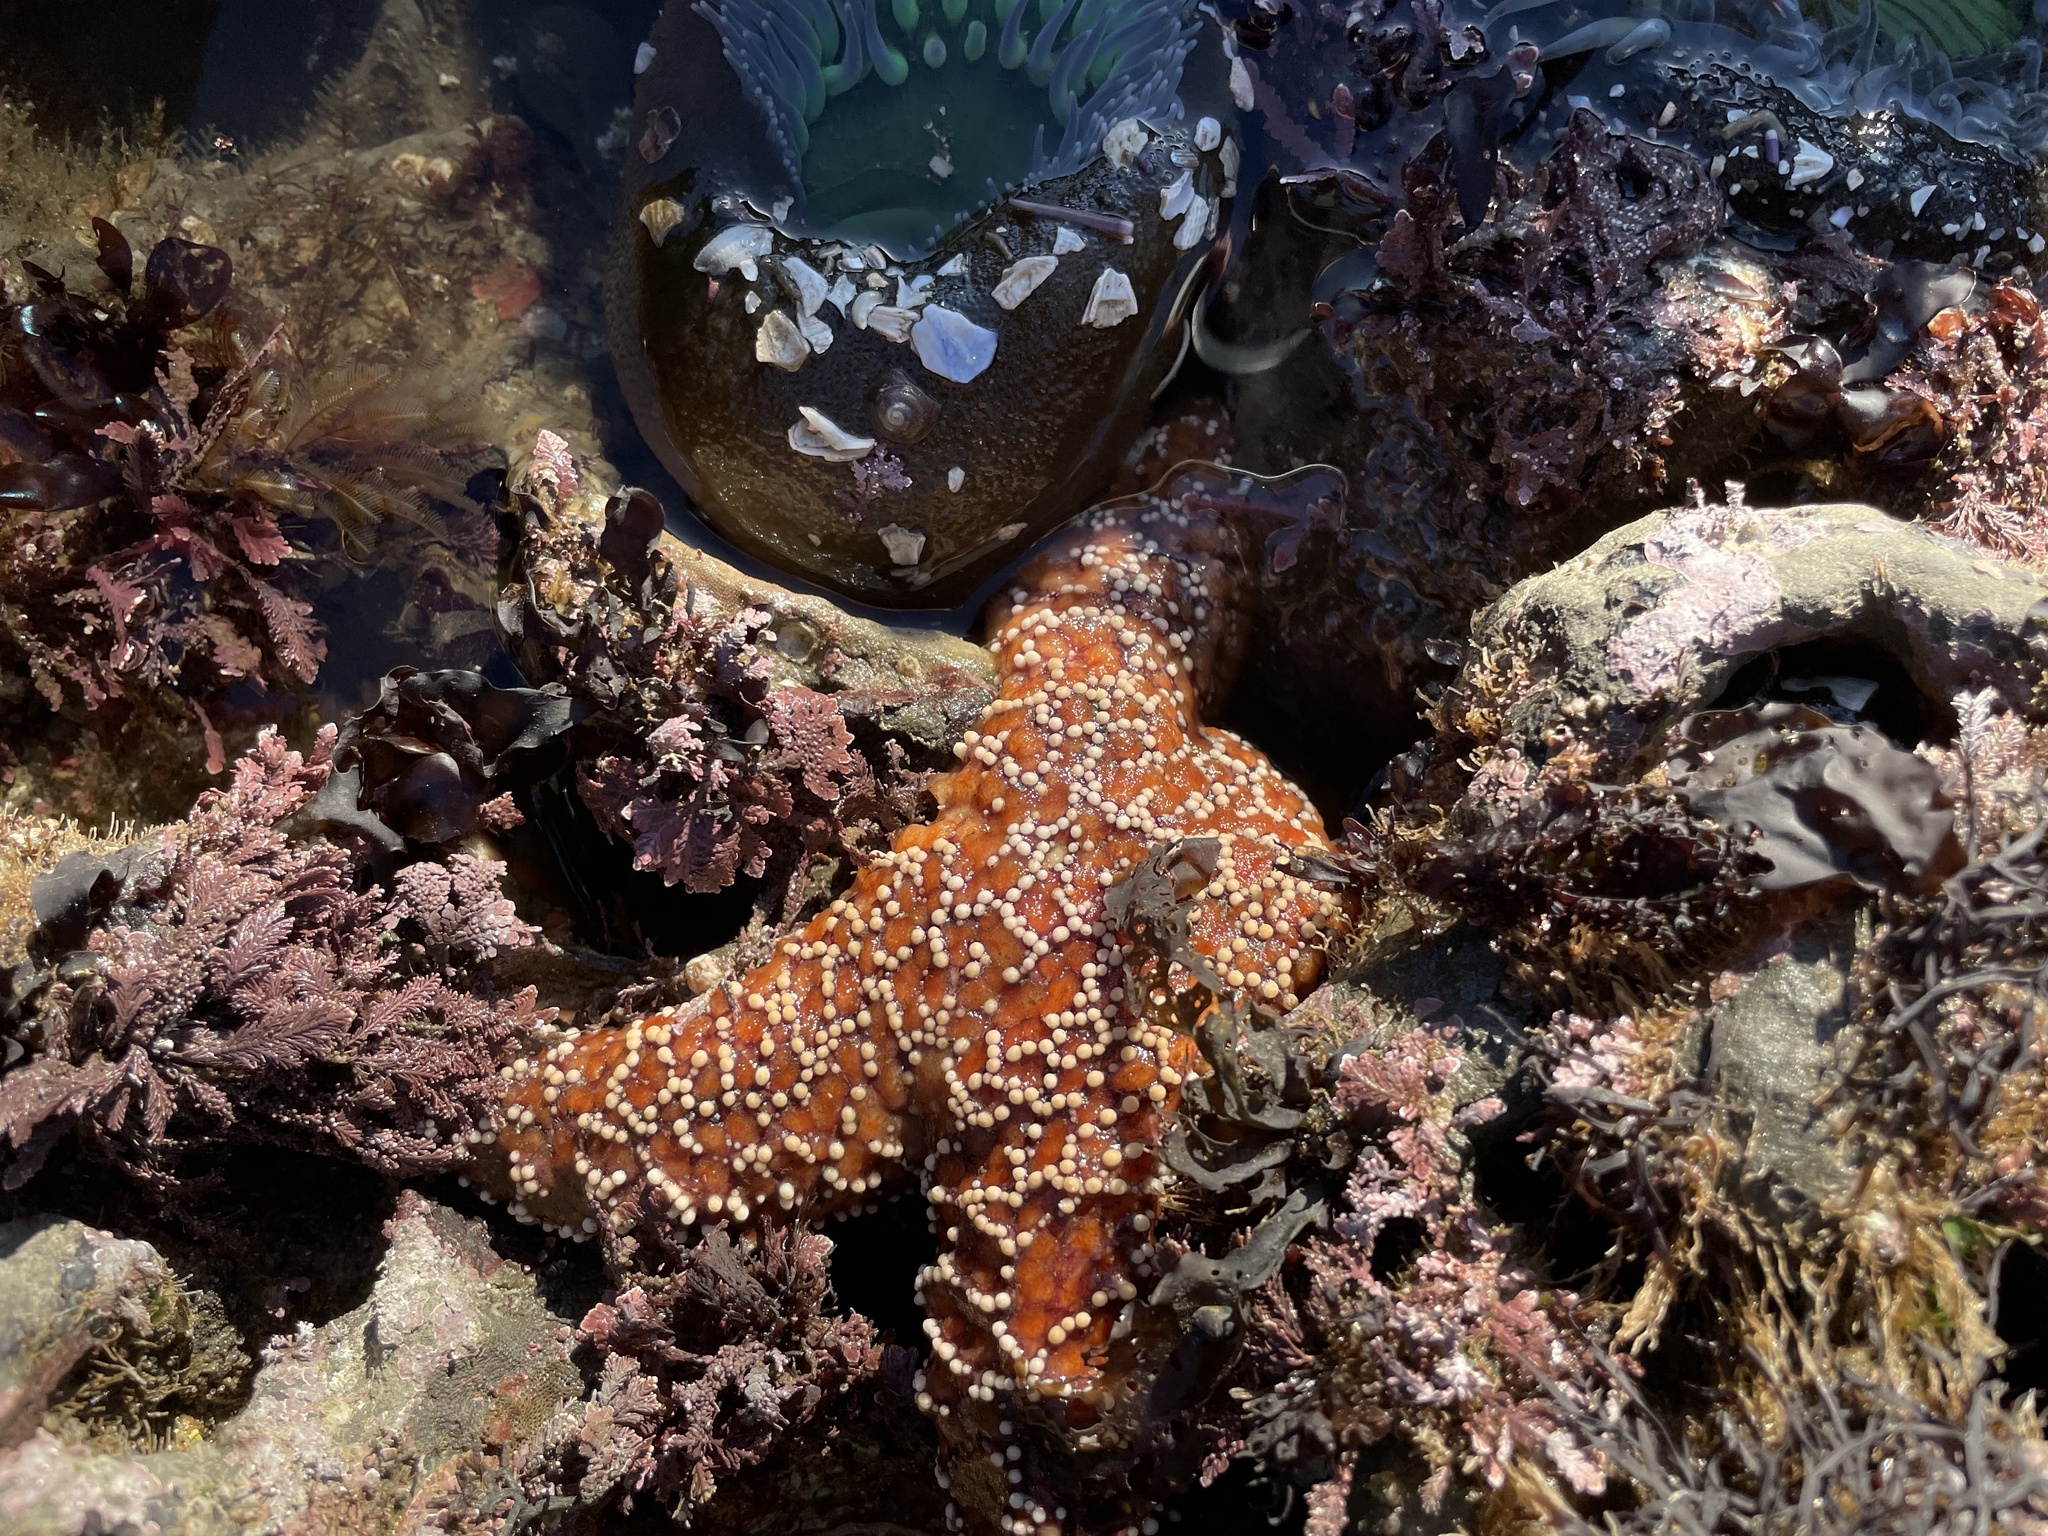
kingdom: Animalia
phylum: Echinodermata
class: Asteroidea
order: Forcipulatida
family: Asteriidae
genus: Pisaster
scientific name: Pisaster ochraceus
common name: Ochre stars
